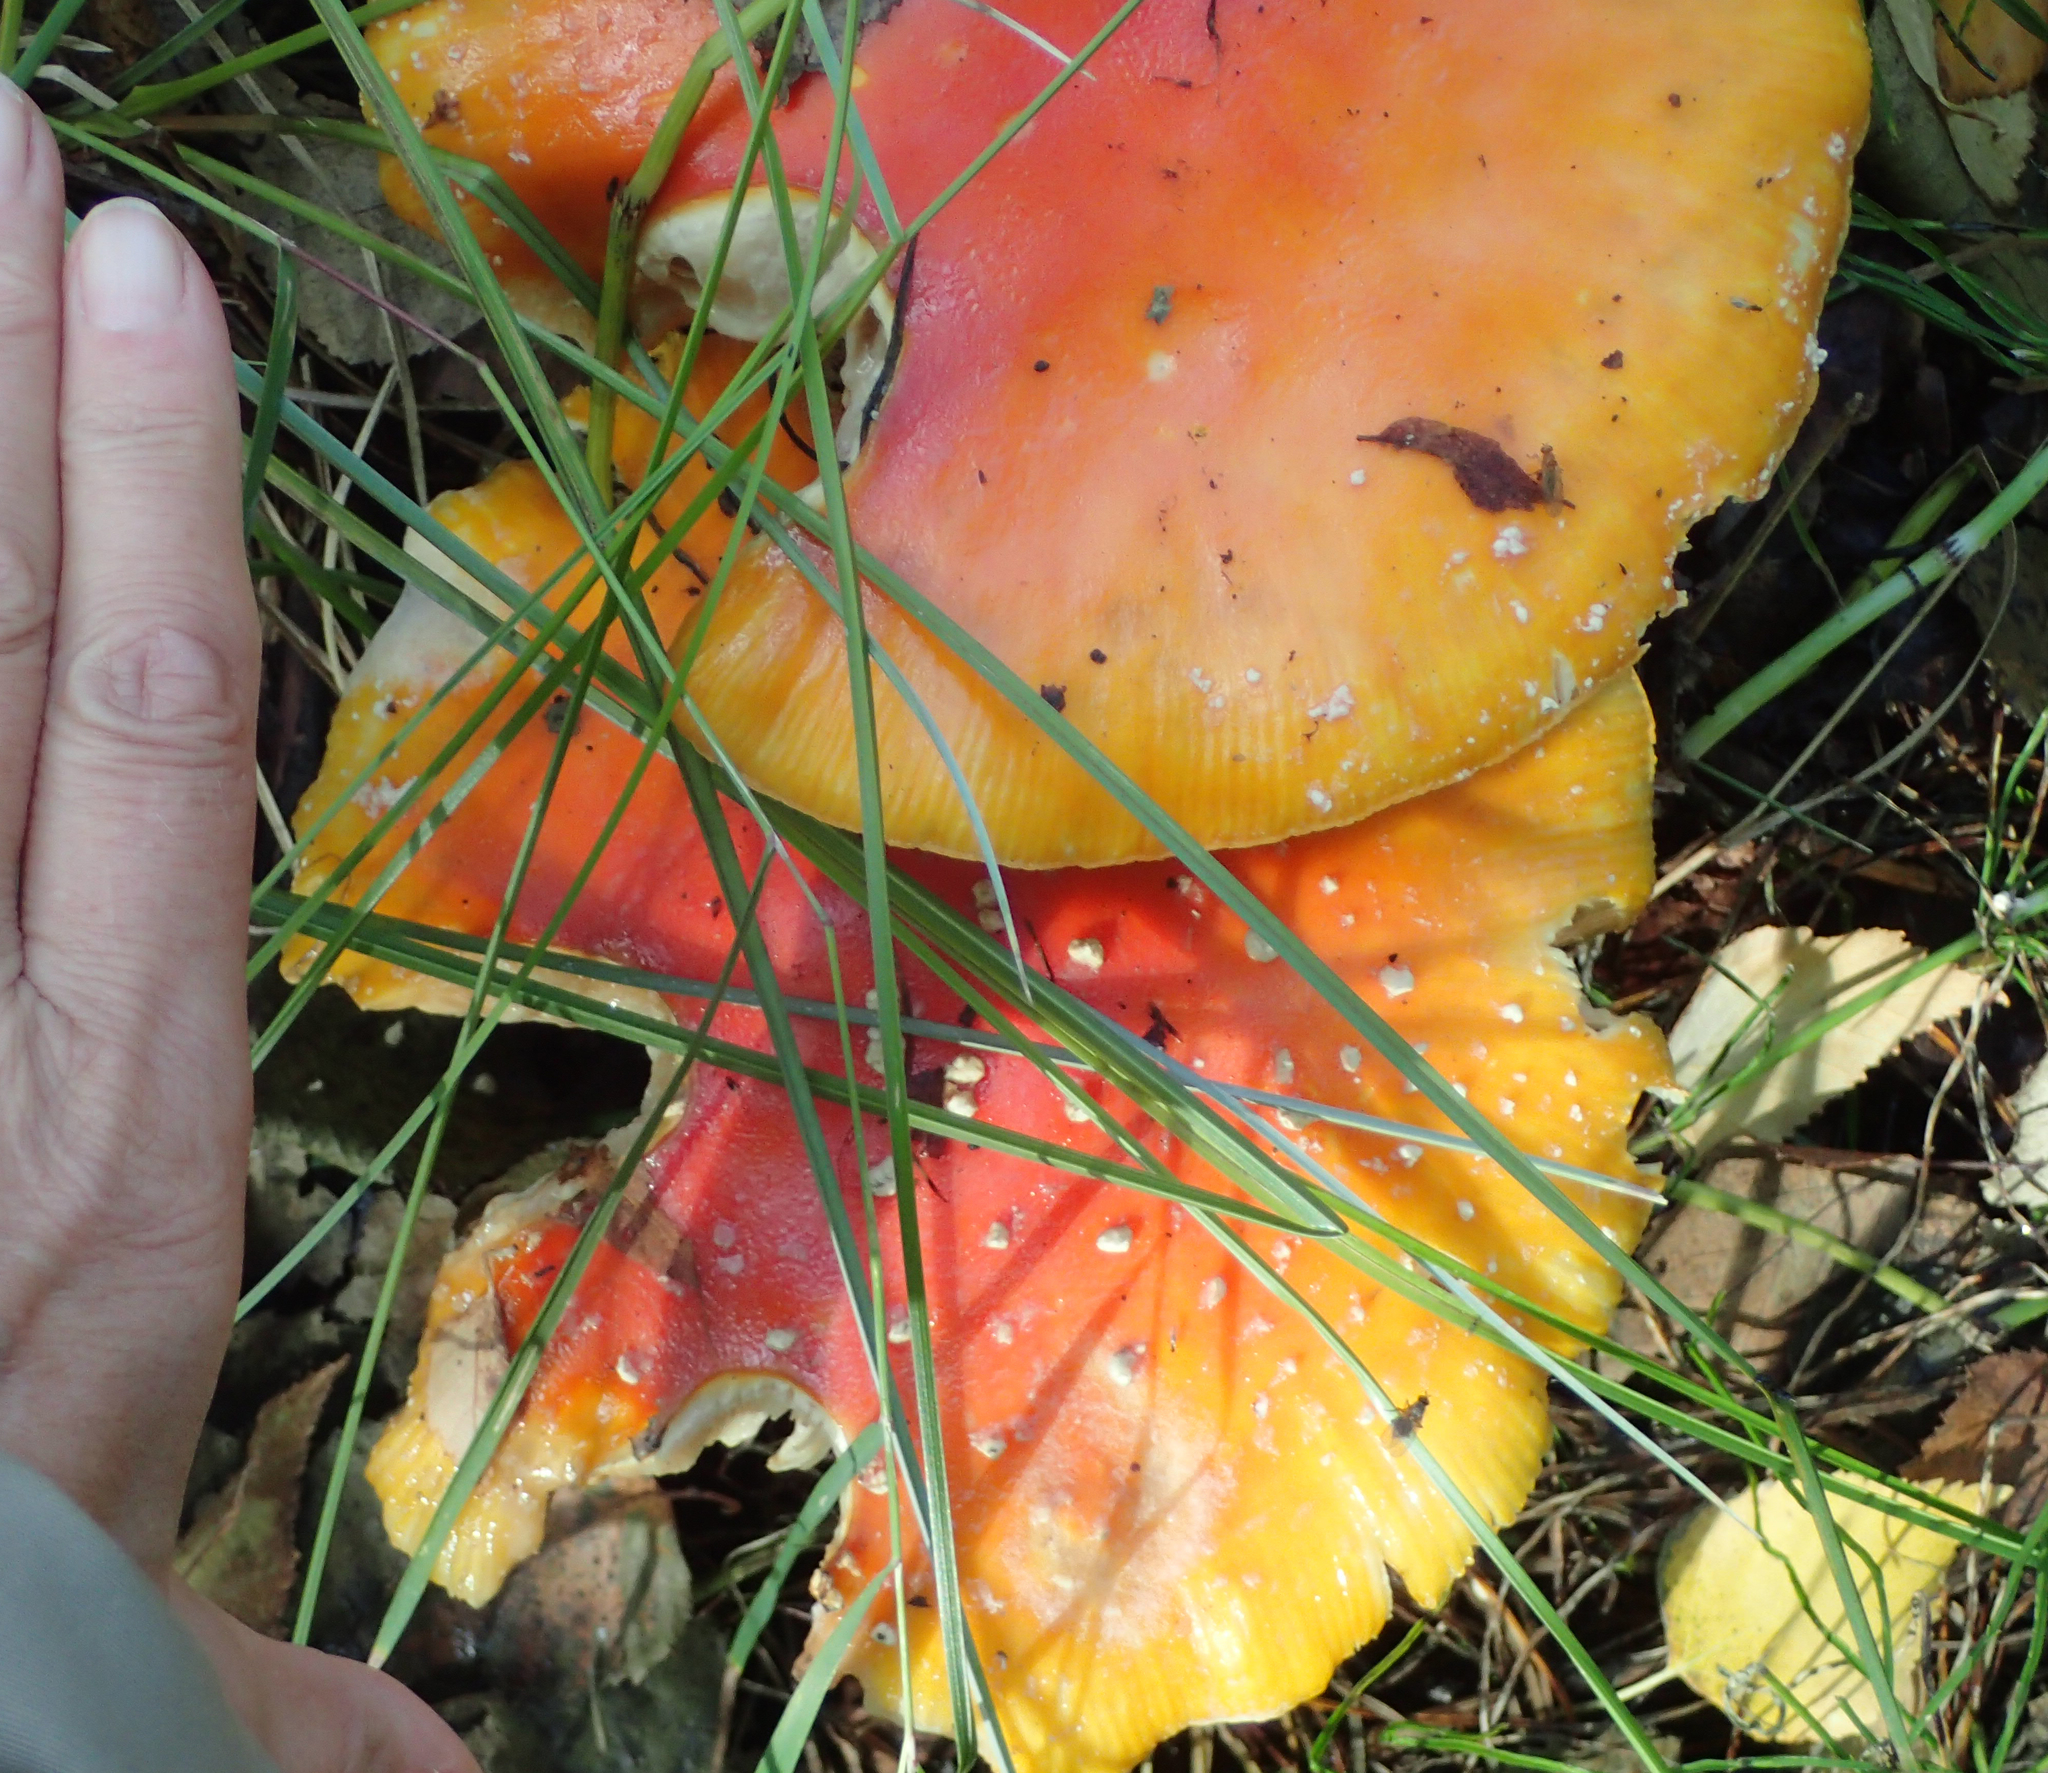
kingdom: Fungi
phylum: Basidiomycota
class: Agaricomycetes
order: Agaricales
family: Amanitaceae
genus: Amanita
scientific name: Amanita muscaria
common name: Fly agaric
